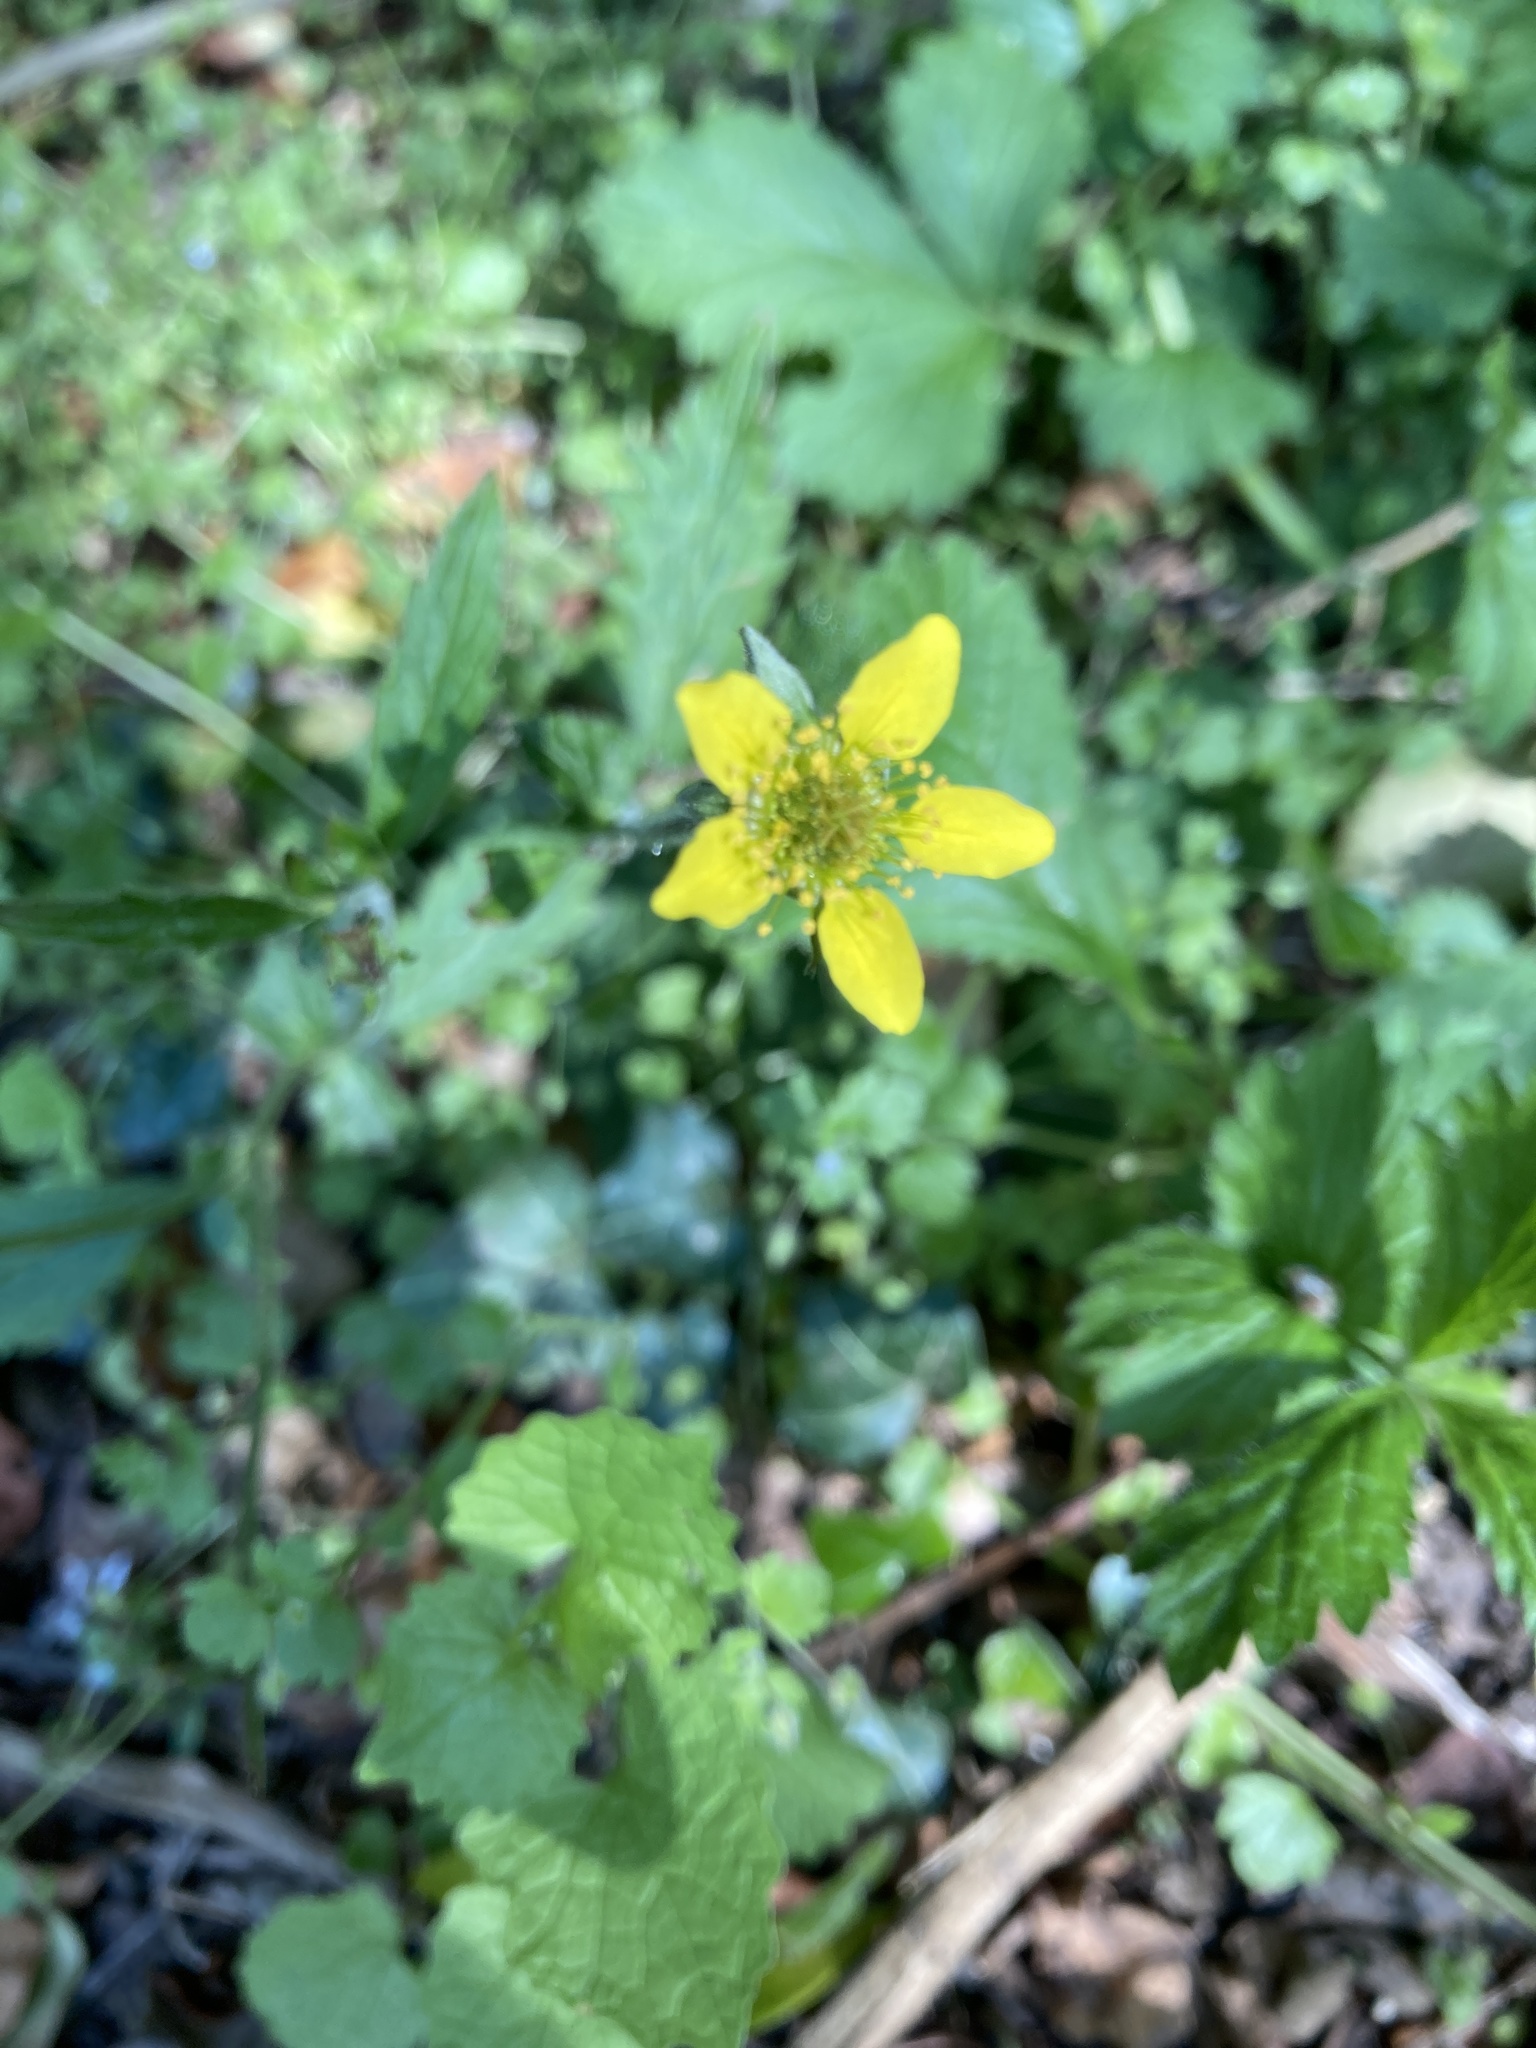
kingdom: Plantae
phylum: Tracheophyta
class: Magnoliopsida
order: Rosales
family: Rosaceae
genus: Geum
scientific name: Geum urbanum
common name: Wood avens
